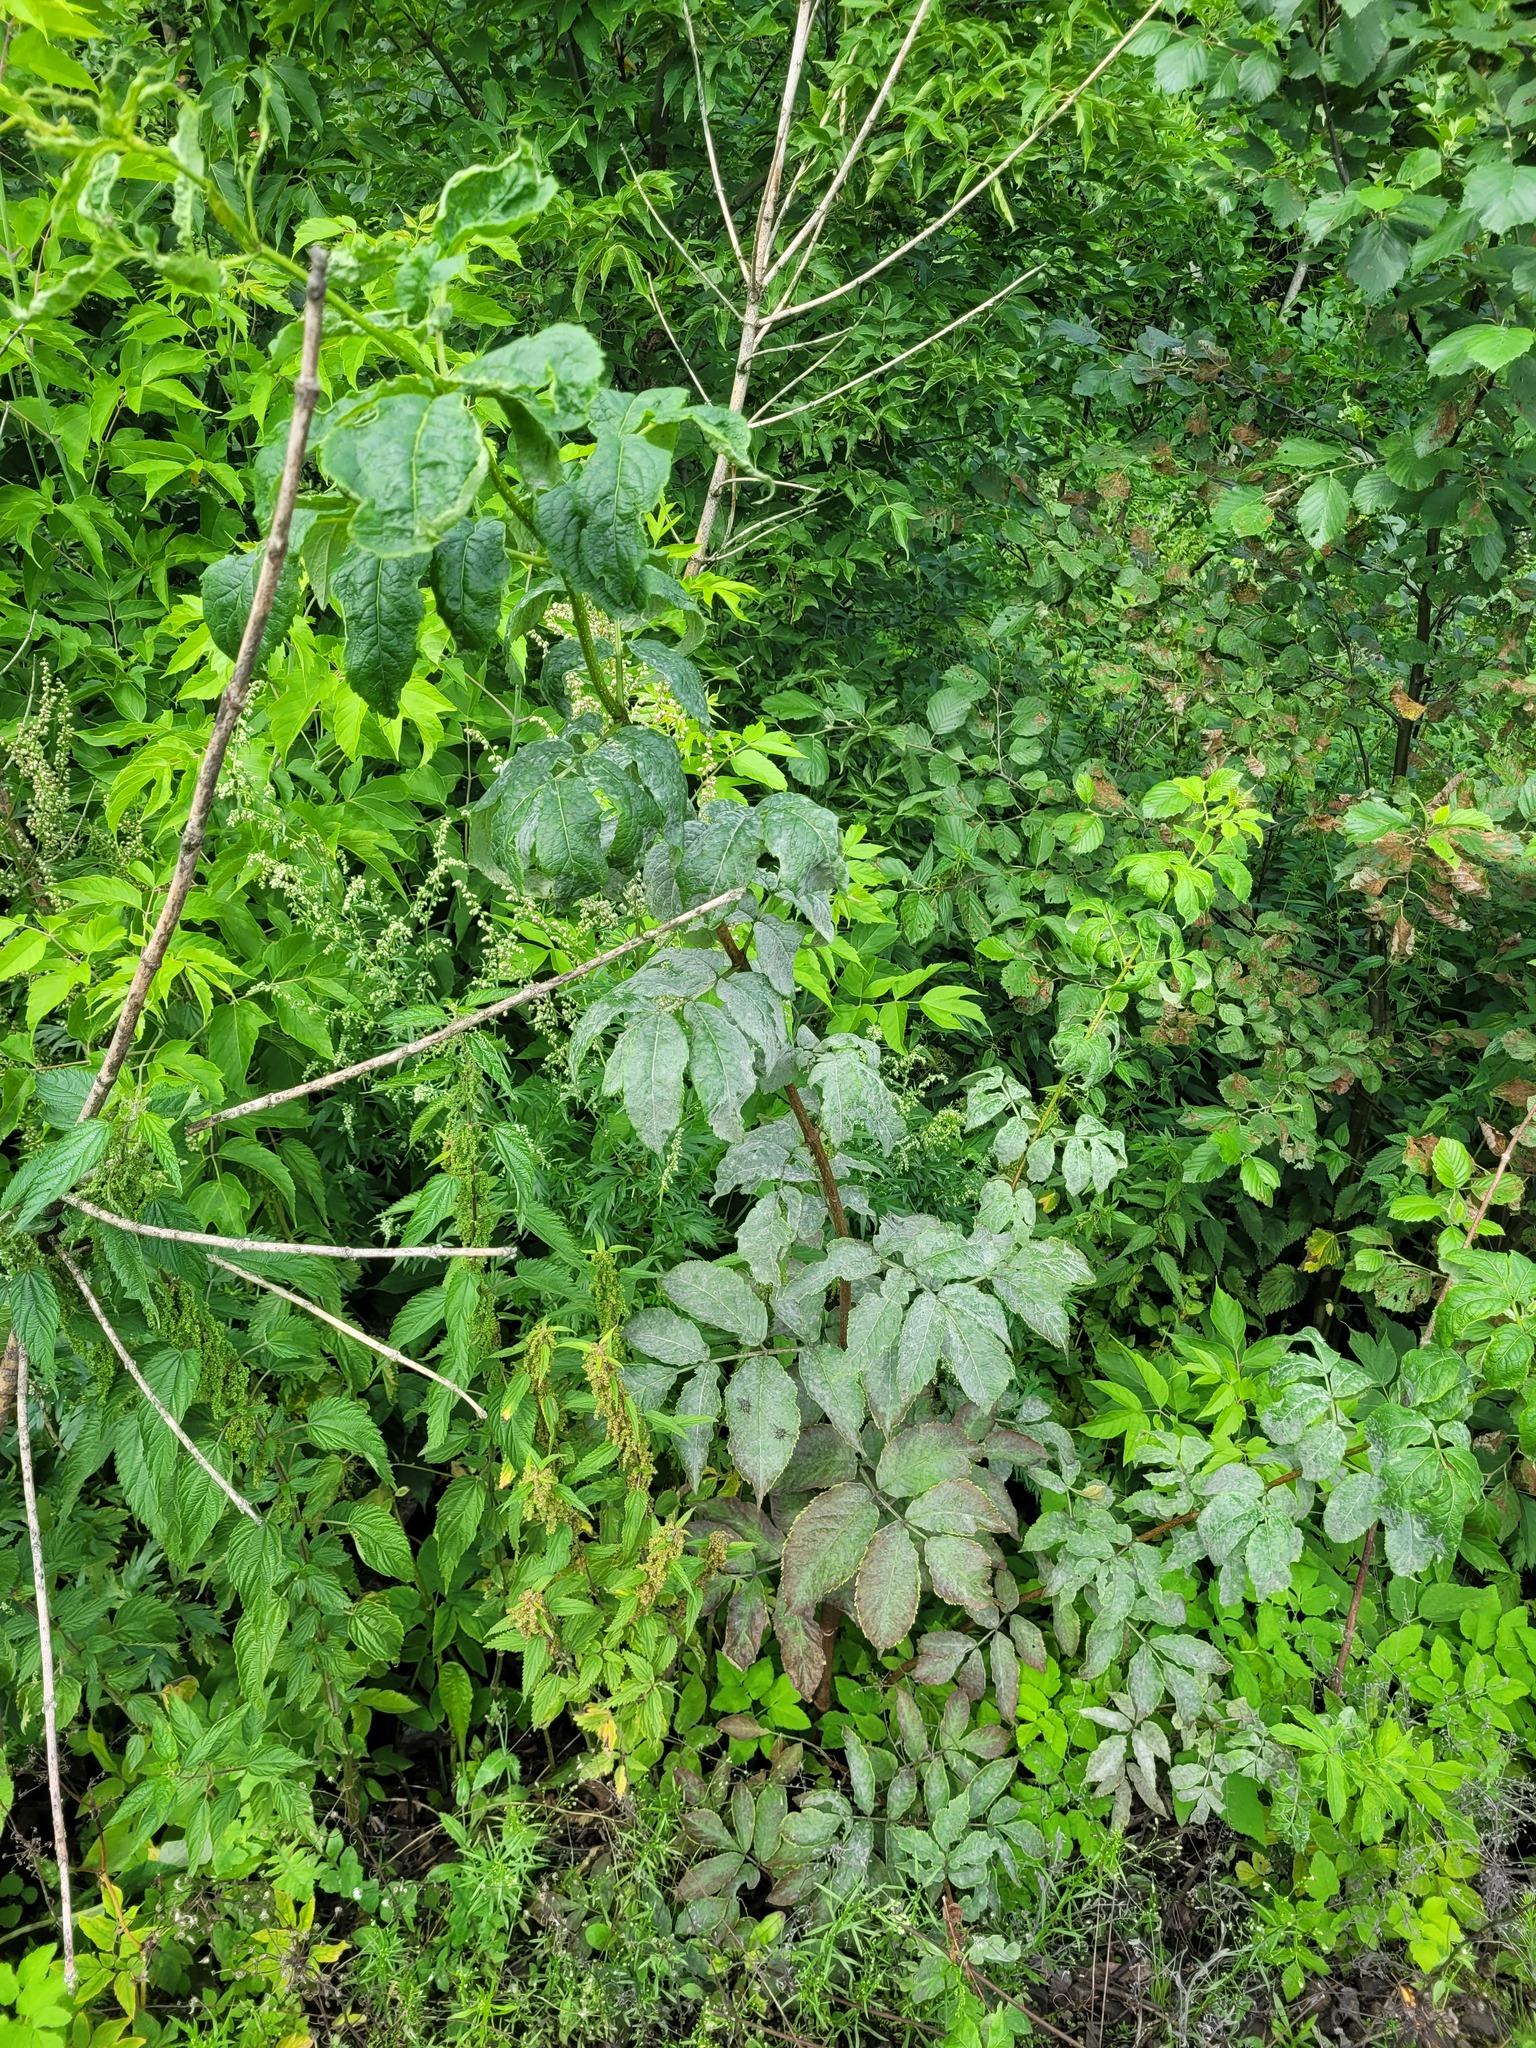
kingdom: Plantae
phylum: Tracheophyta
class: Magnoliopsida
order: Dipsacales
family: Viburnaceae
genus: Sambucus
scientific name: Sambucus racemosa
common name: Red-berried elder
